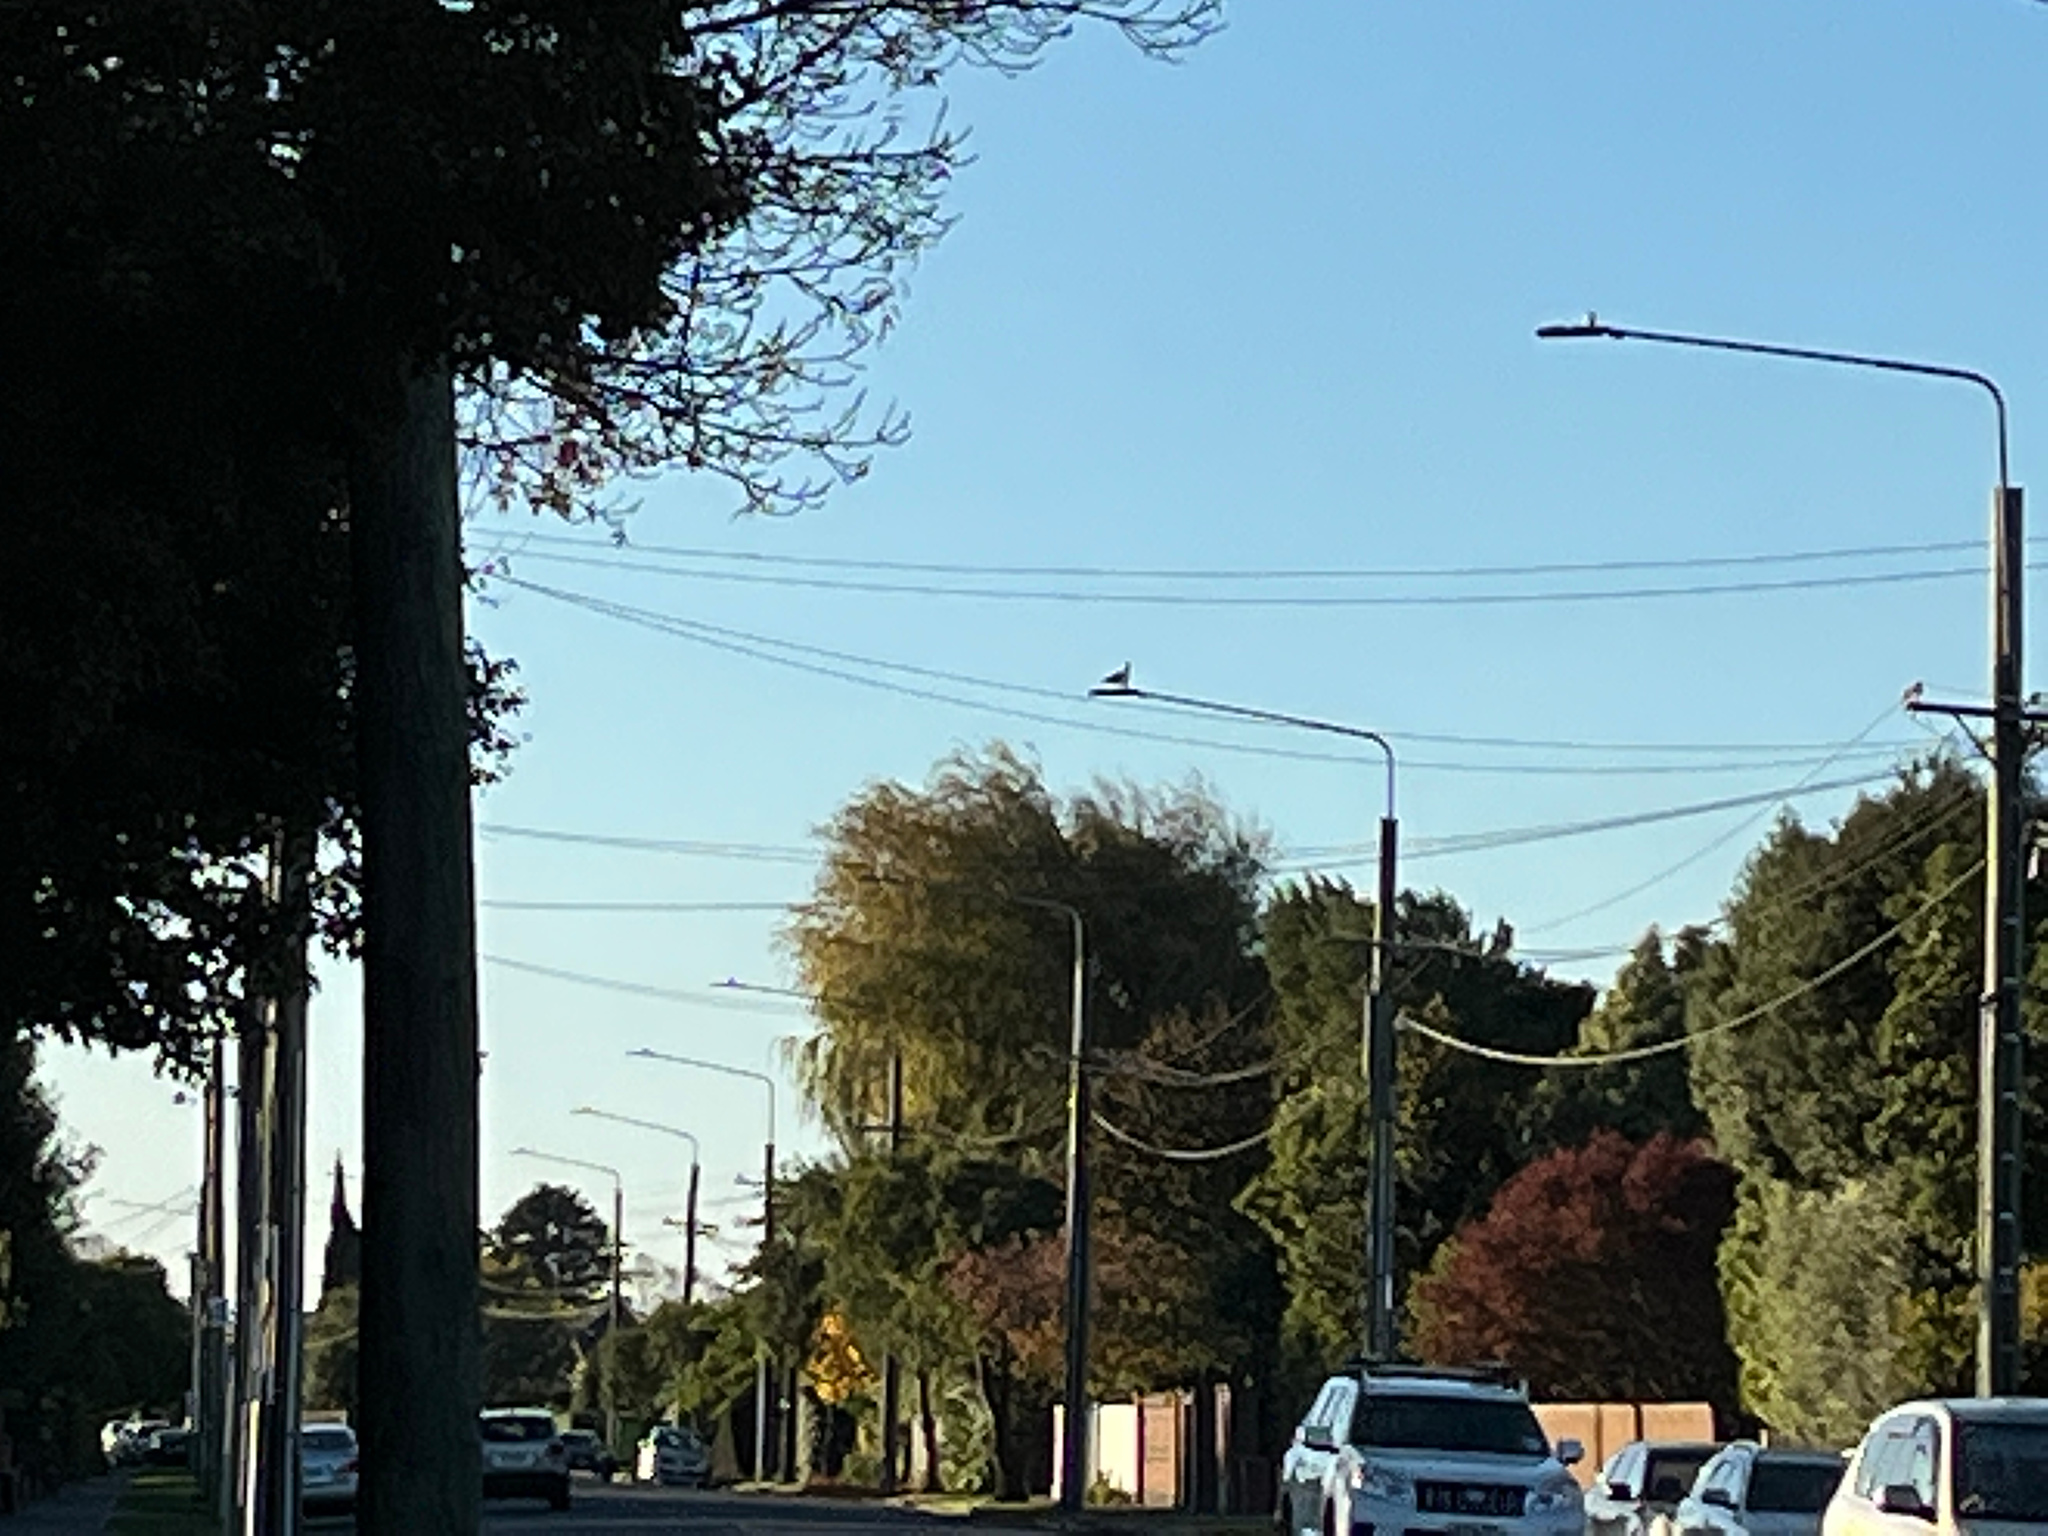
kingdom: Animalia
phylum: Chordata
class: Aves
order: Charadriiformes
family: Laridae
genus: Larus
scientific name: Larus dominicanus
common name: Kelp gull
